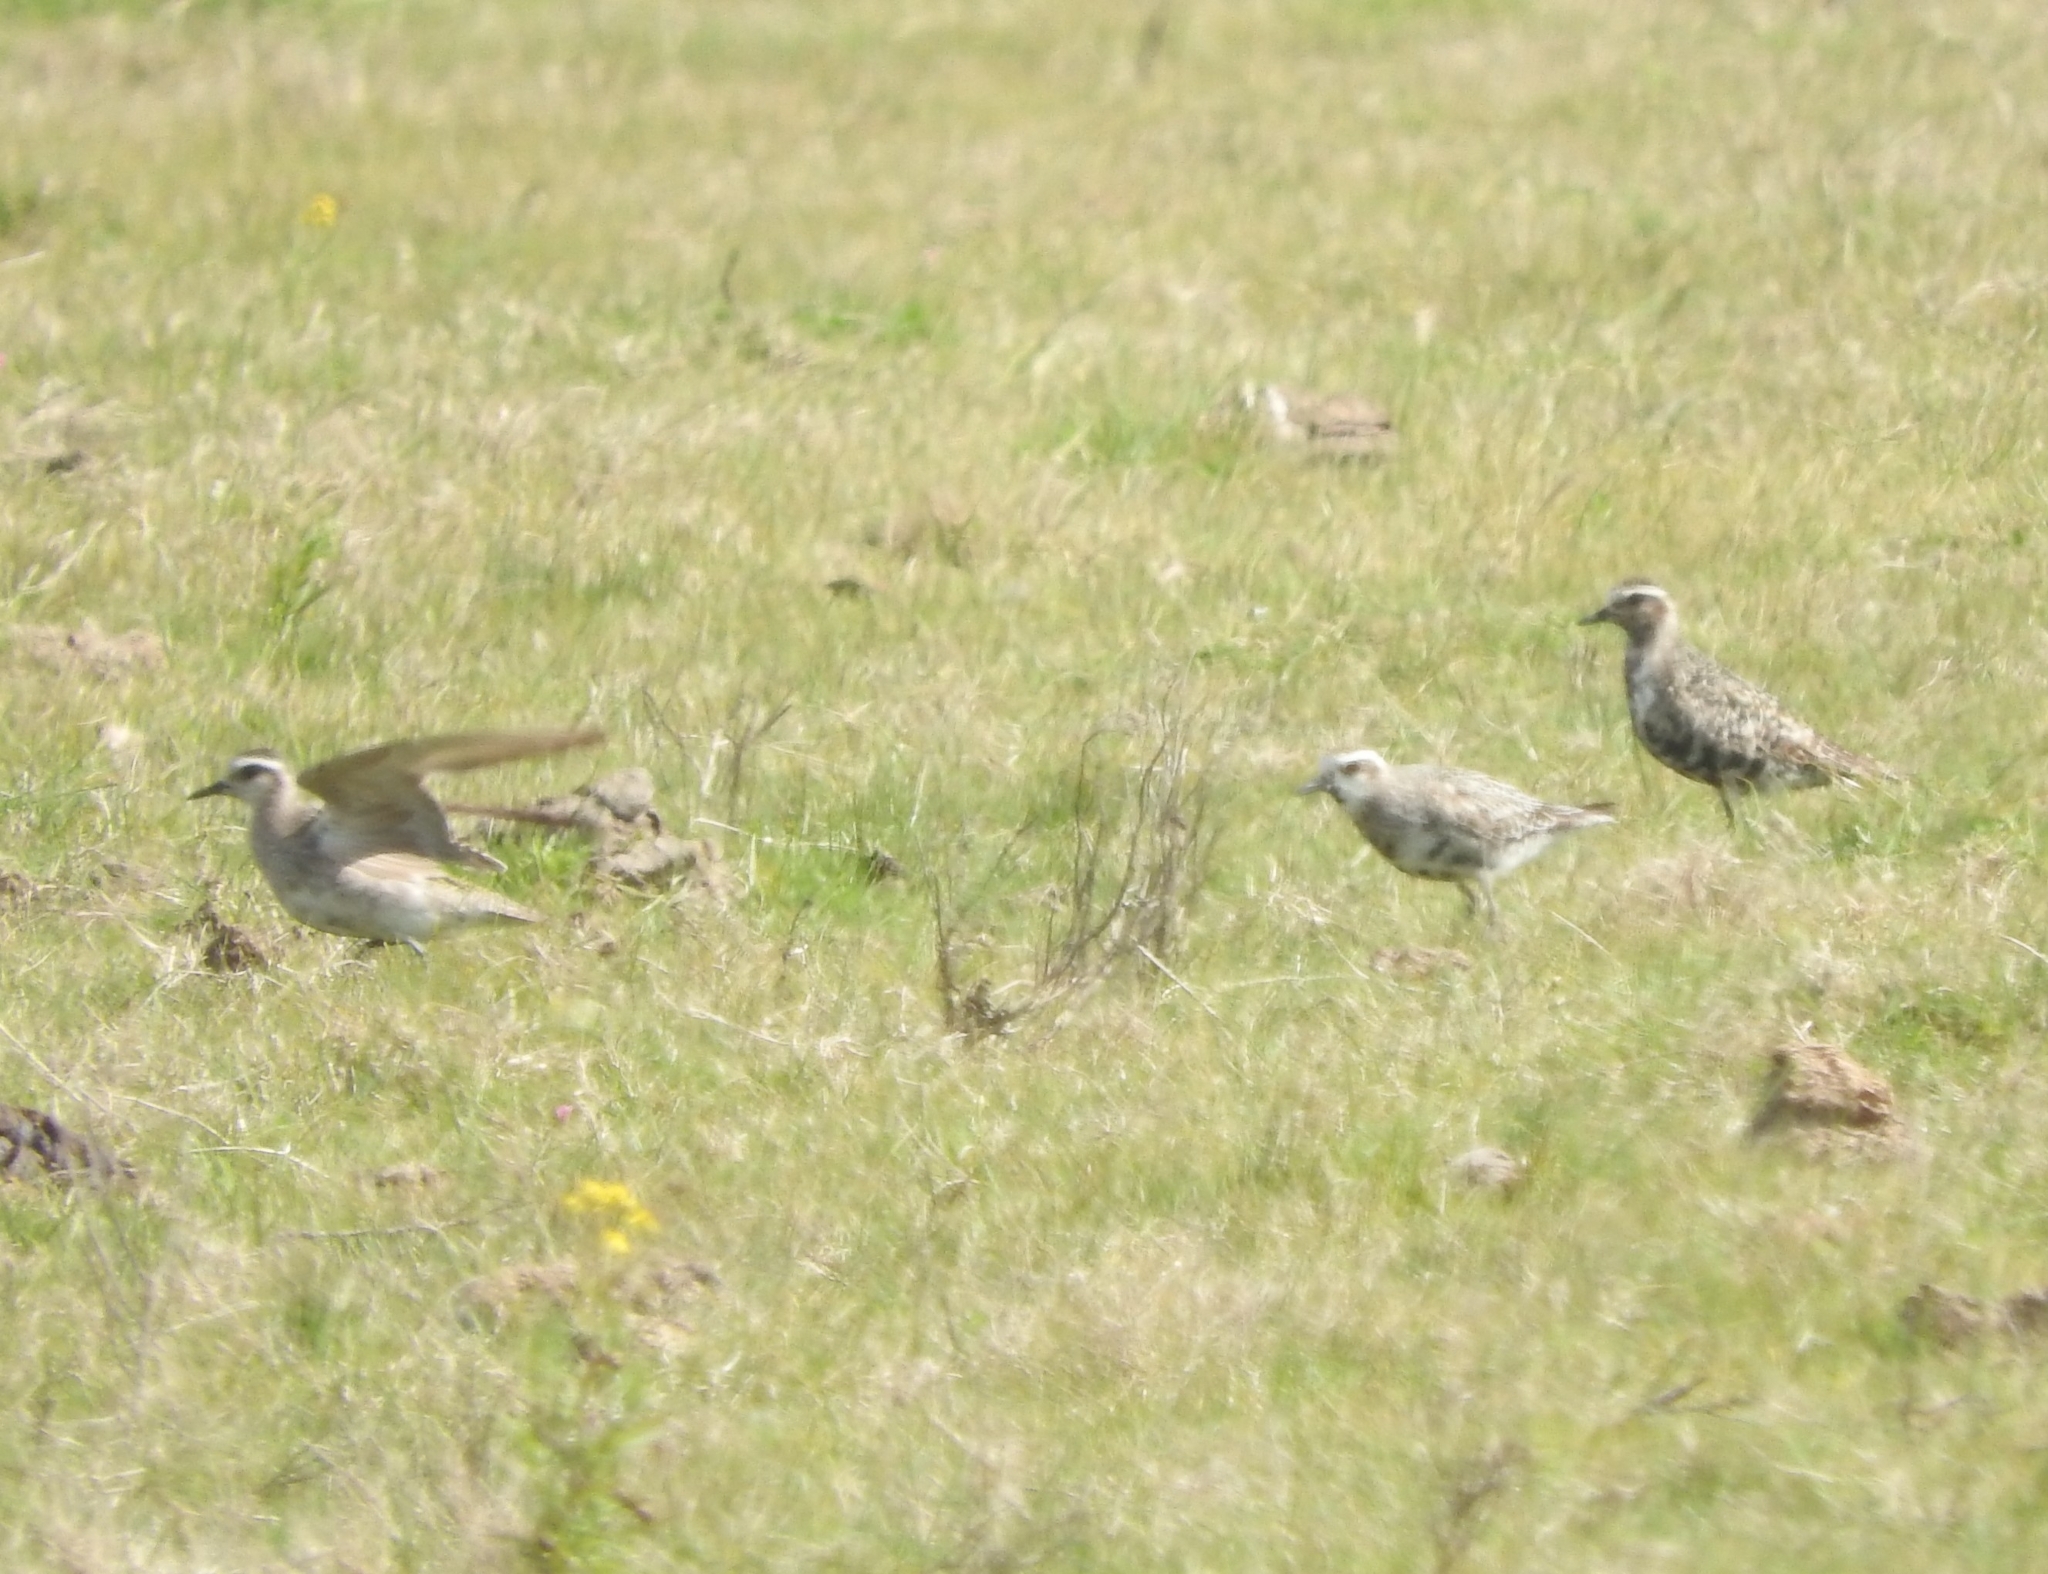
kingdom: Animalia
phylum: Chordata
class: Aves
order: Charadriiformes
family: Charadriidae
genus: Pluvialis
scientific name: Pluvialis dominica
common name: American golden plover
